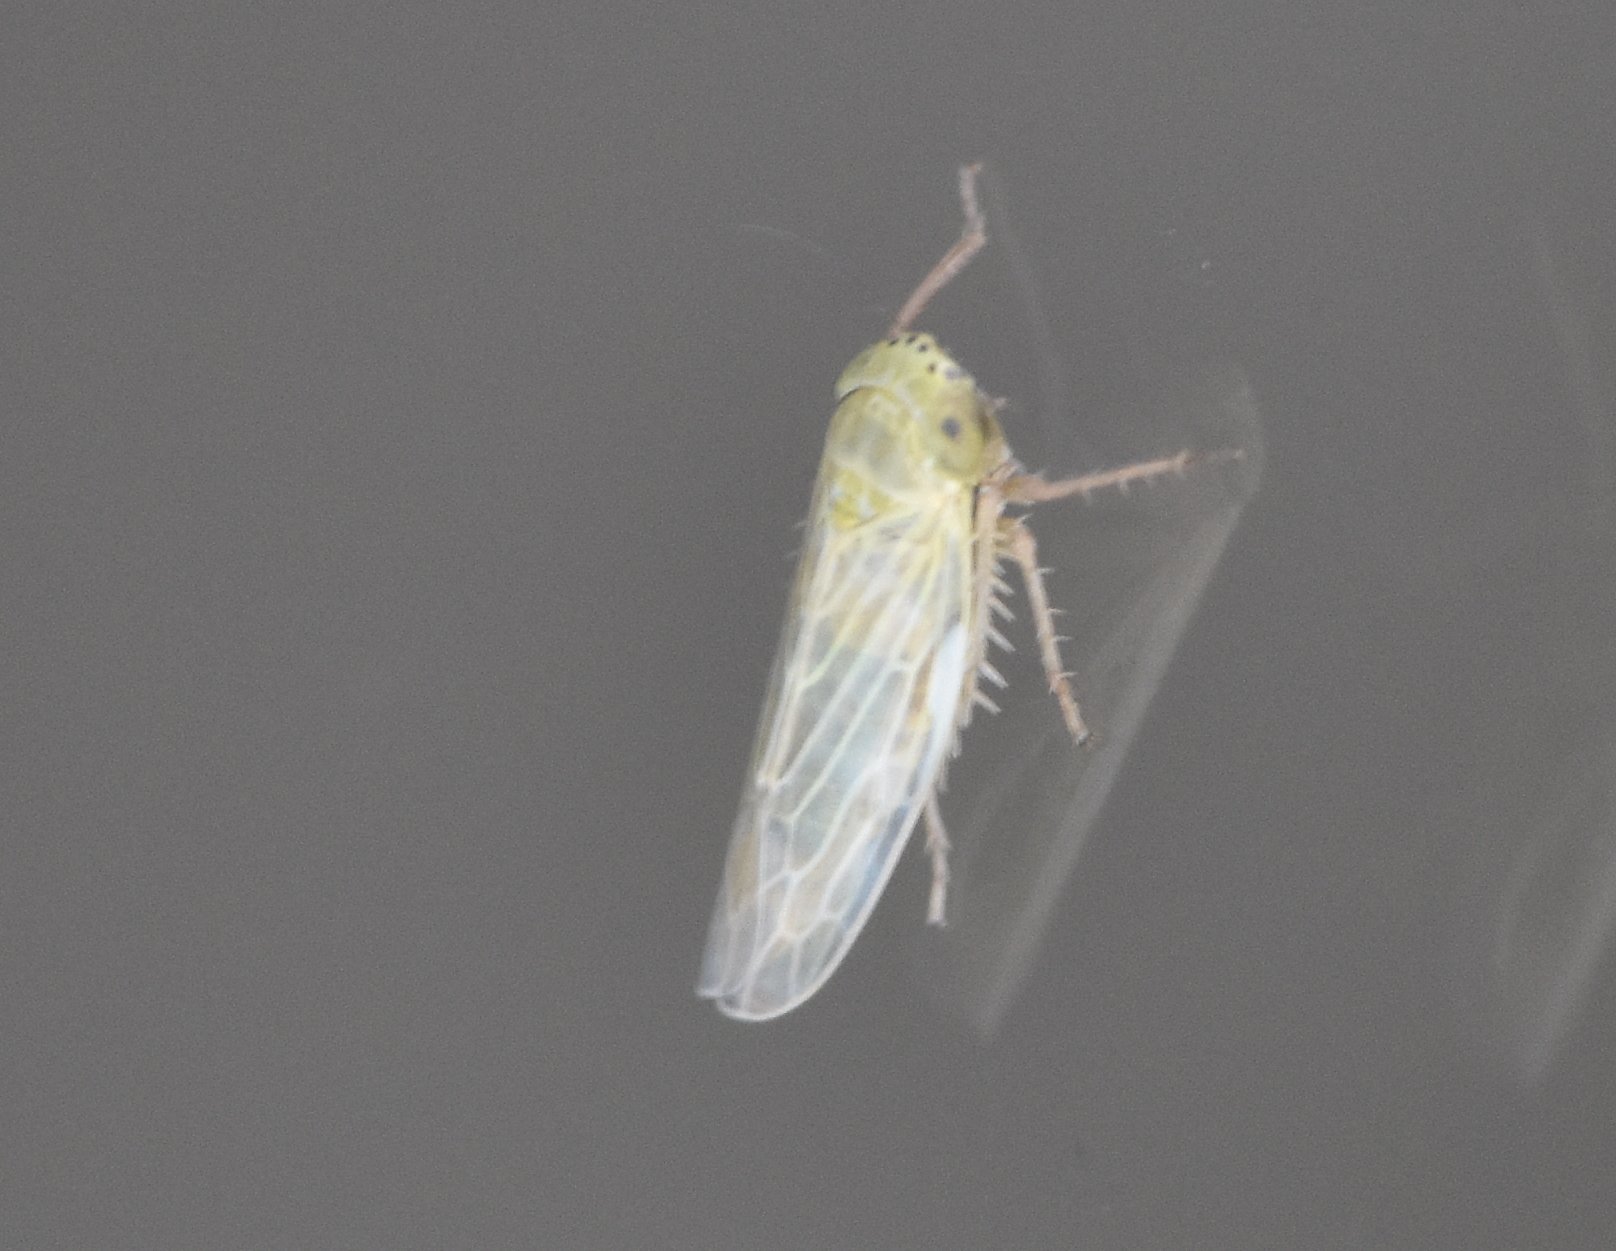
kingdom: Animalia
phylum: Arthropoda
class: Insecta
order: Hemiptera
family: Cicadellidae
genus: Graminella
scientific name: Graminella nigrifrons
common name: Blackfaced leafhopper
